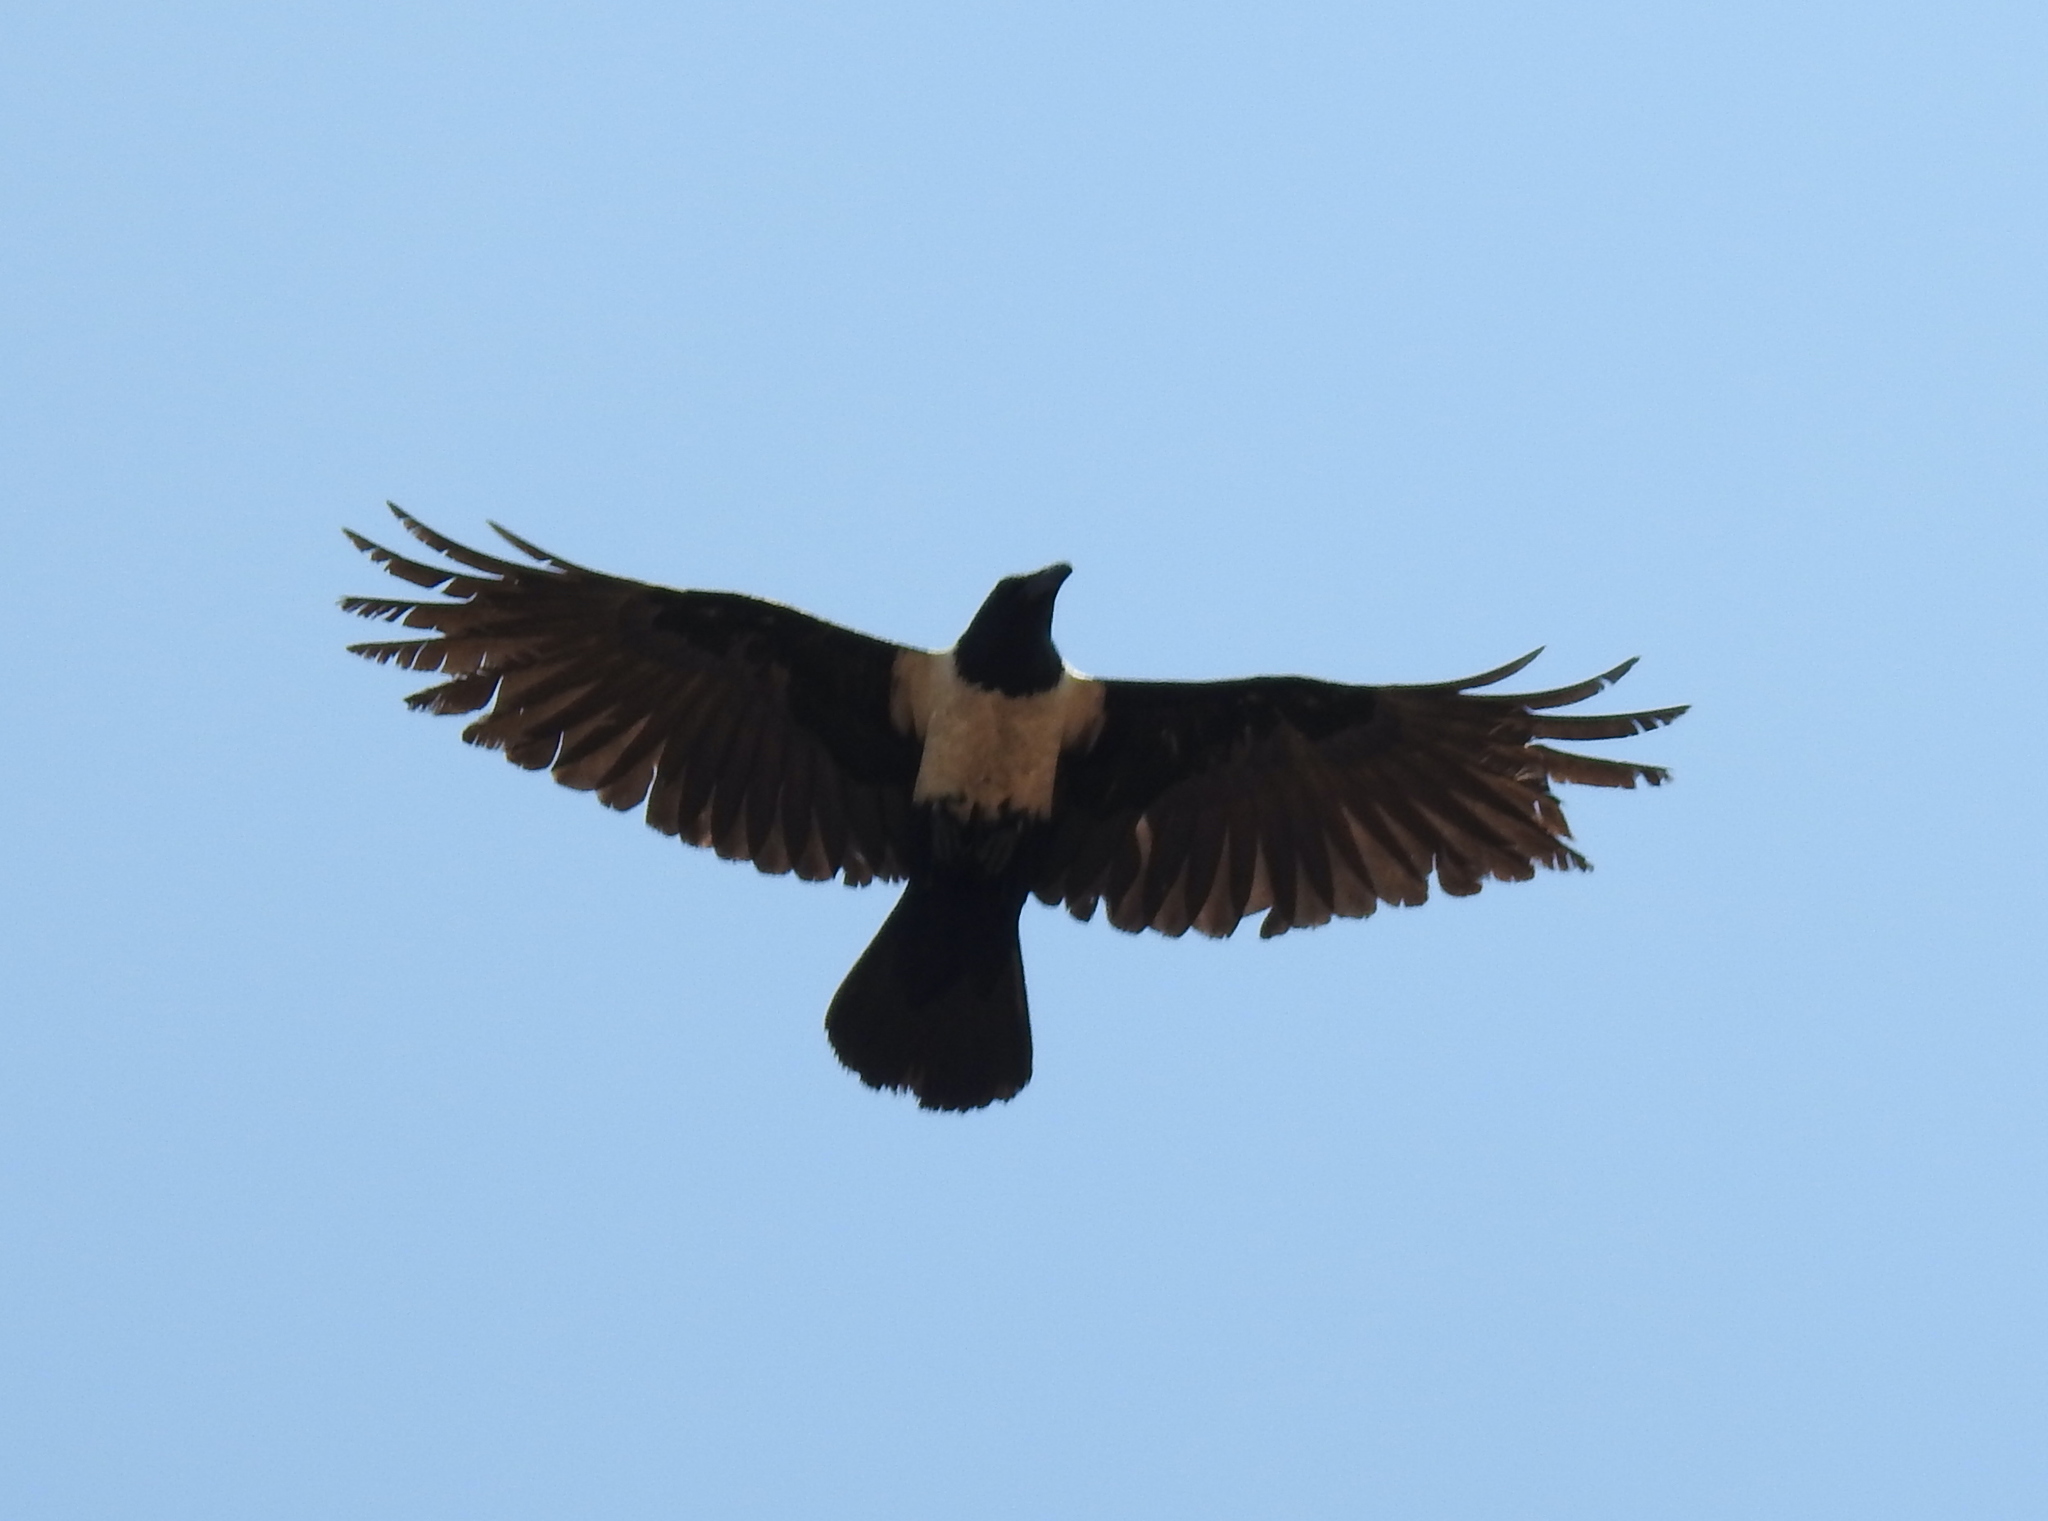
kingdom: Animalia
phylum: Chordata
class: Aves
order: Passeriformes
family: Corvidae
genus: Corvus
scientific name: Corvus albus
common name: Pied crow
